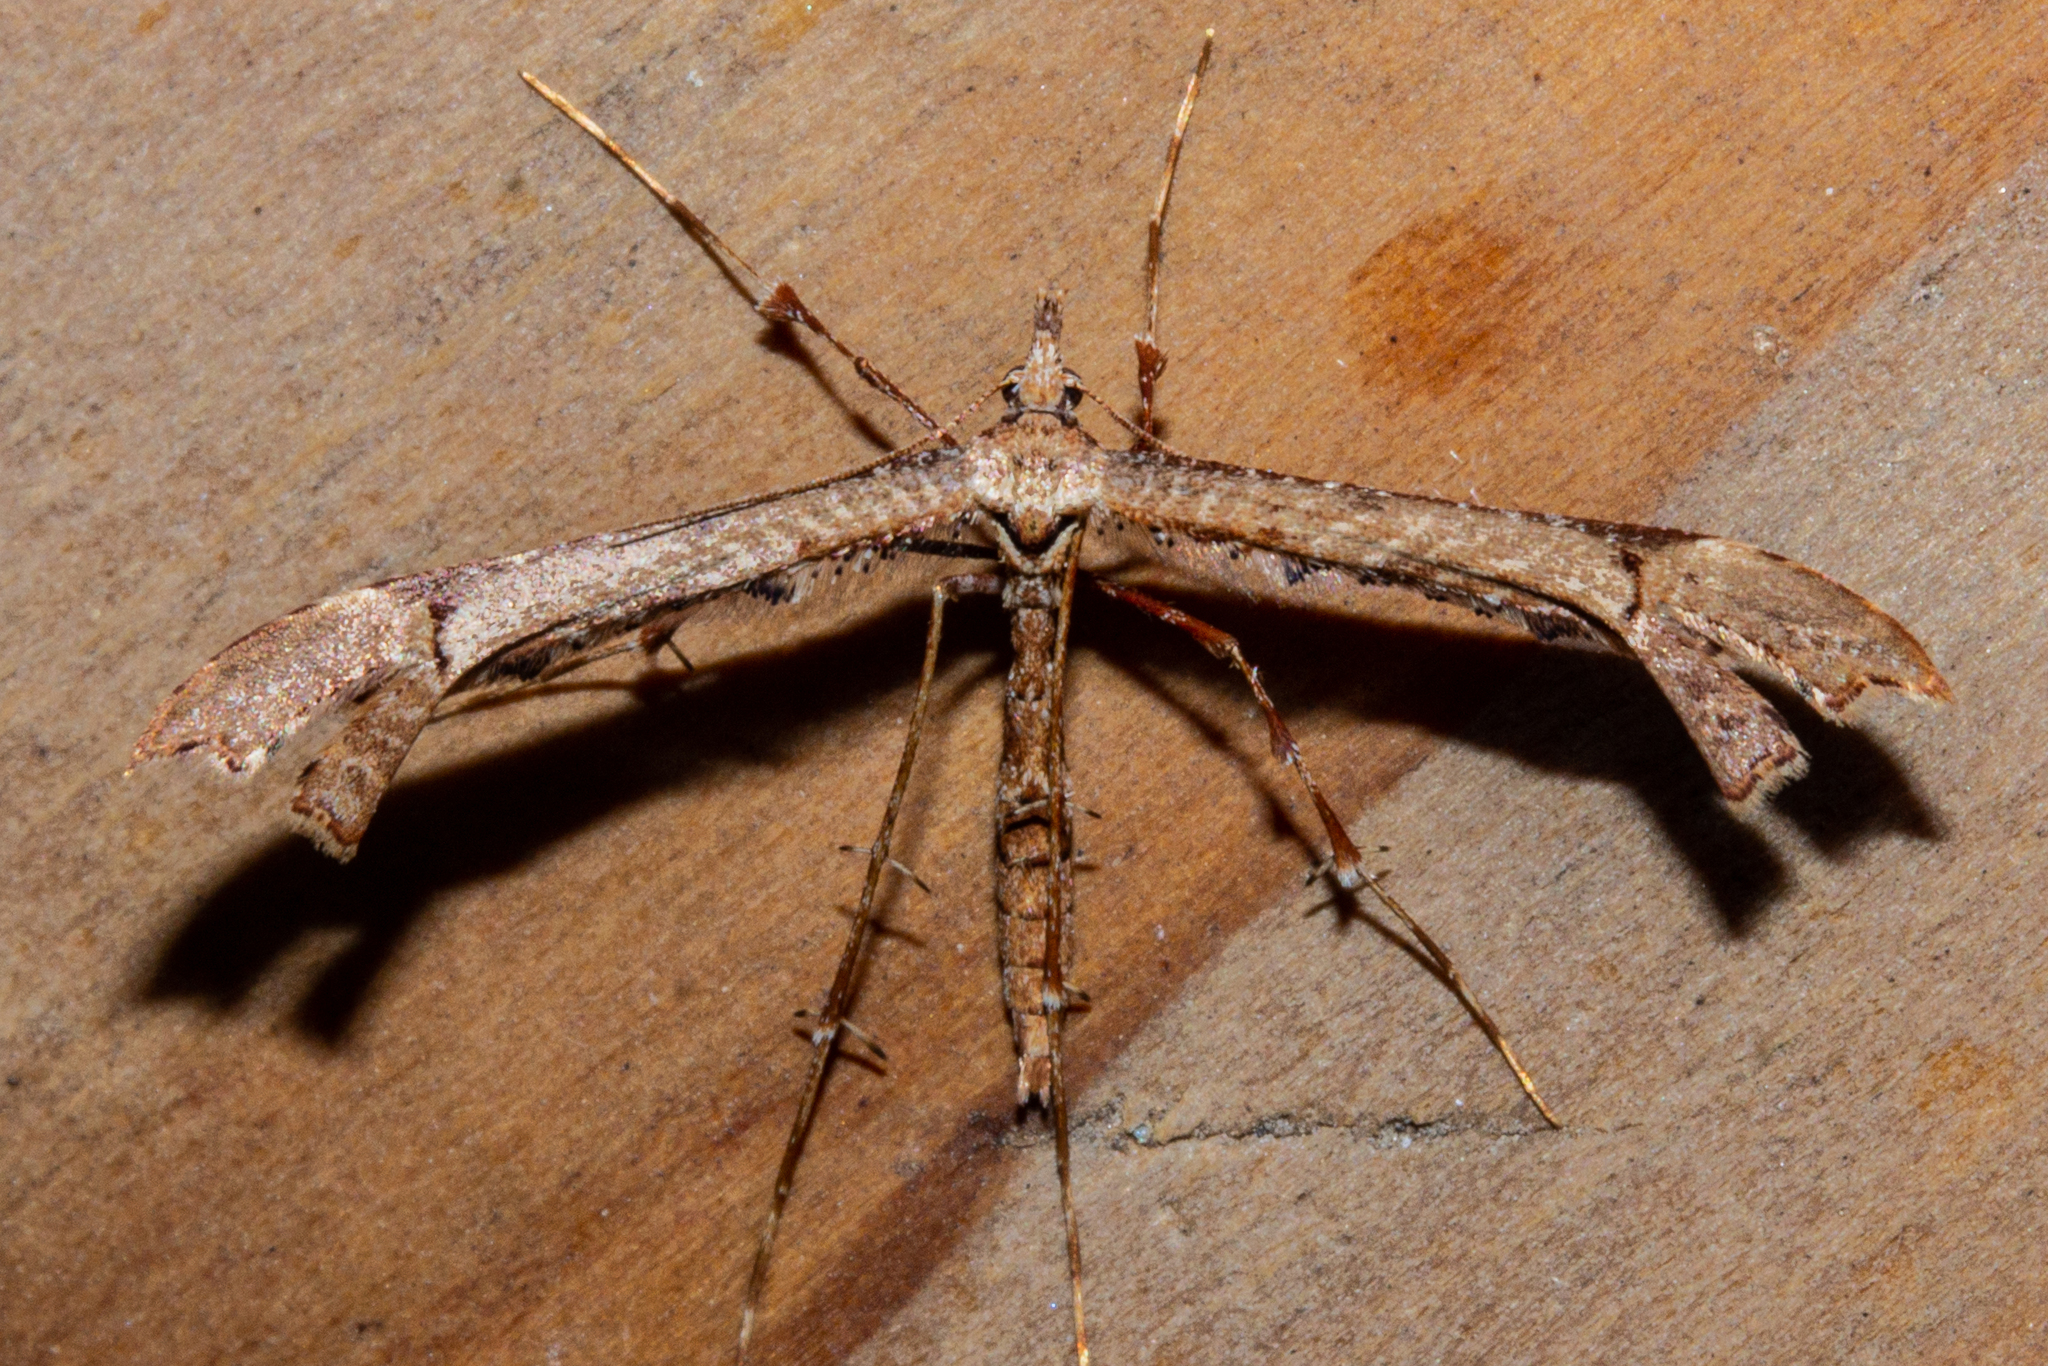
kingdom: Animalia
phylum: Arthropoda
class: Insecta
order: Lepidoptera
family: Pterophoridae
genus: Amblyptilia
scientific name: Amblyptilia repletalis
